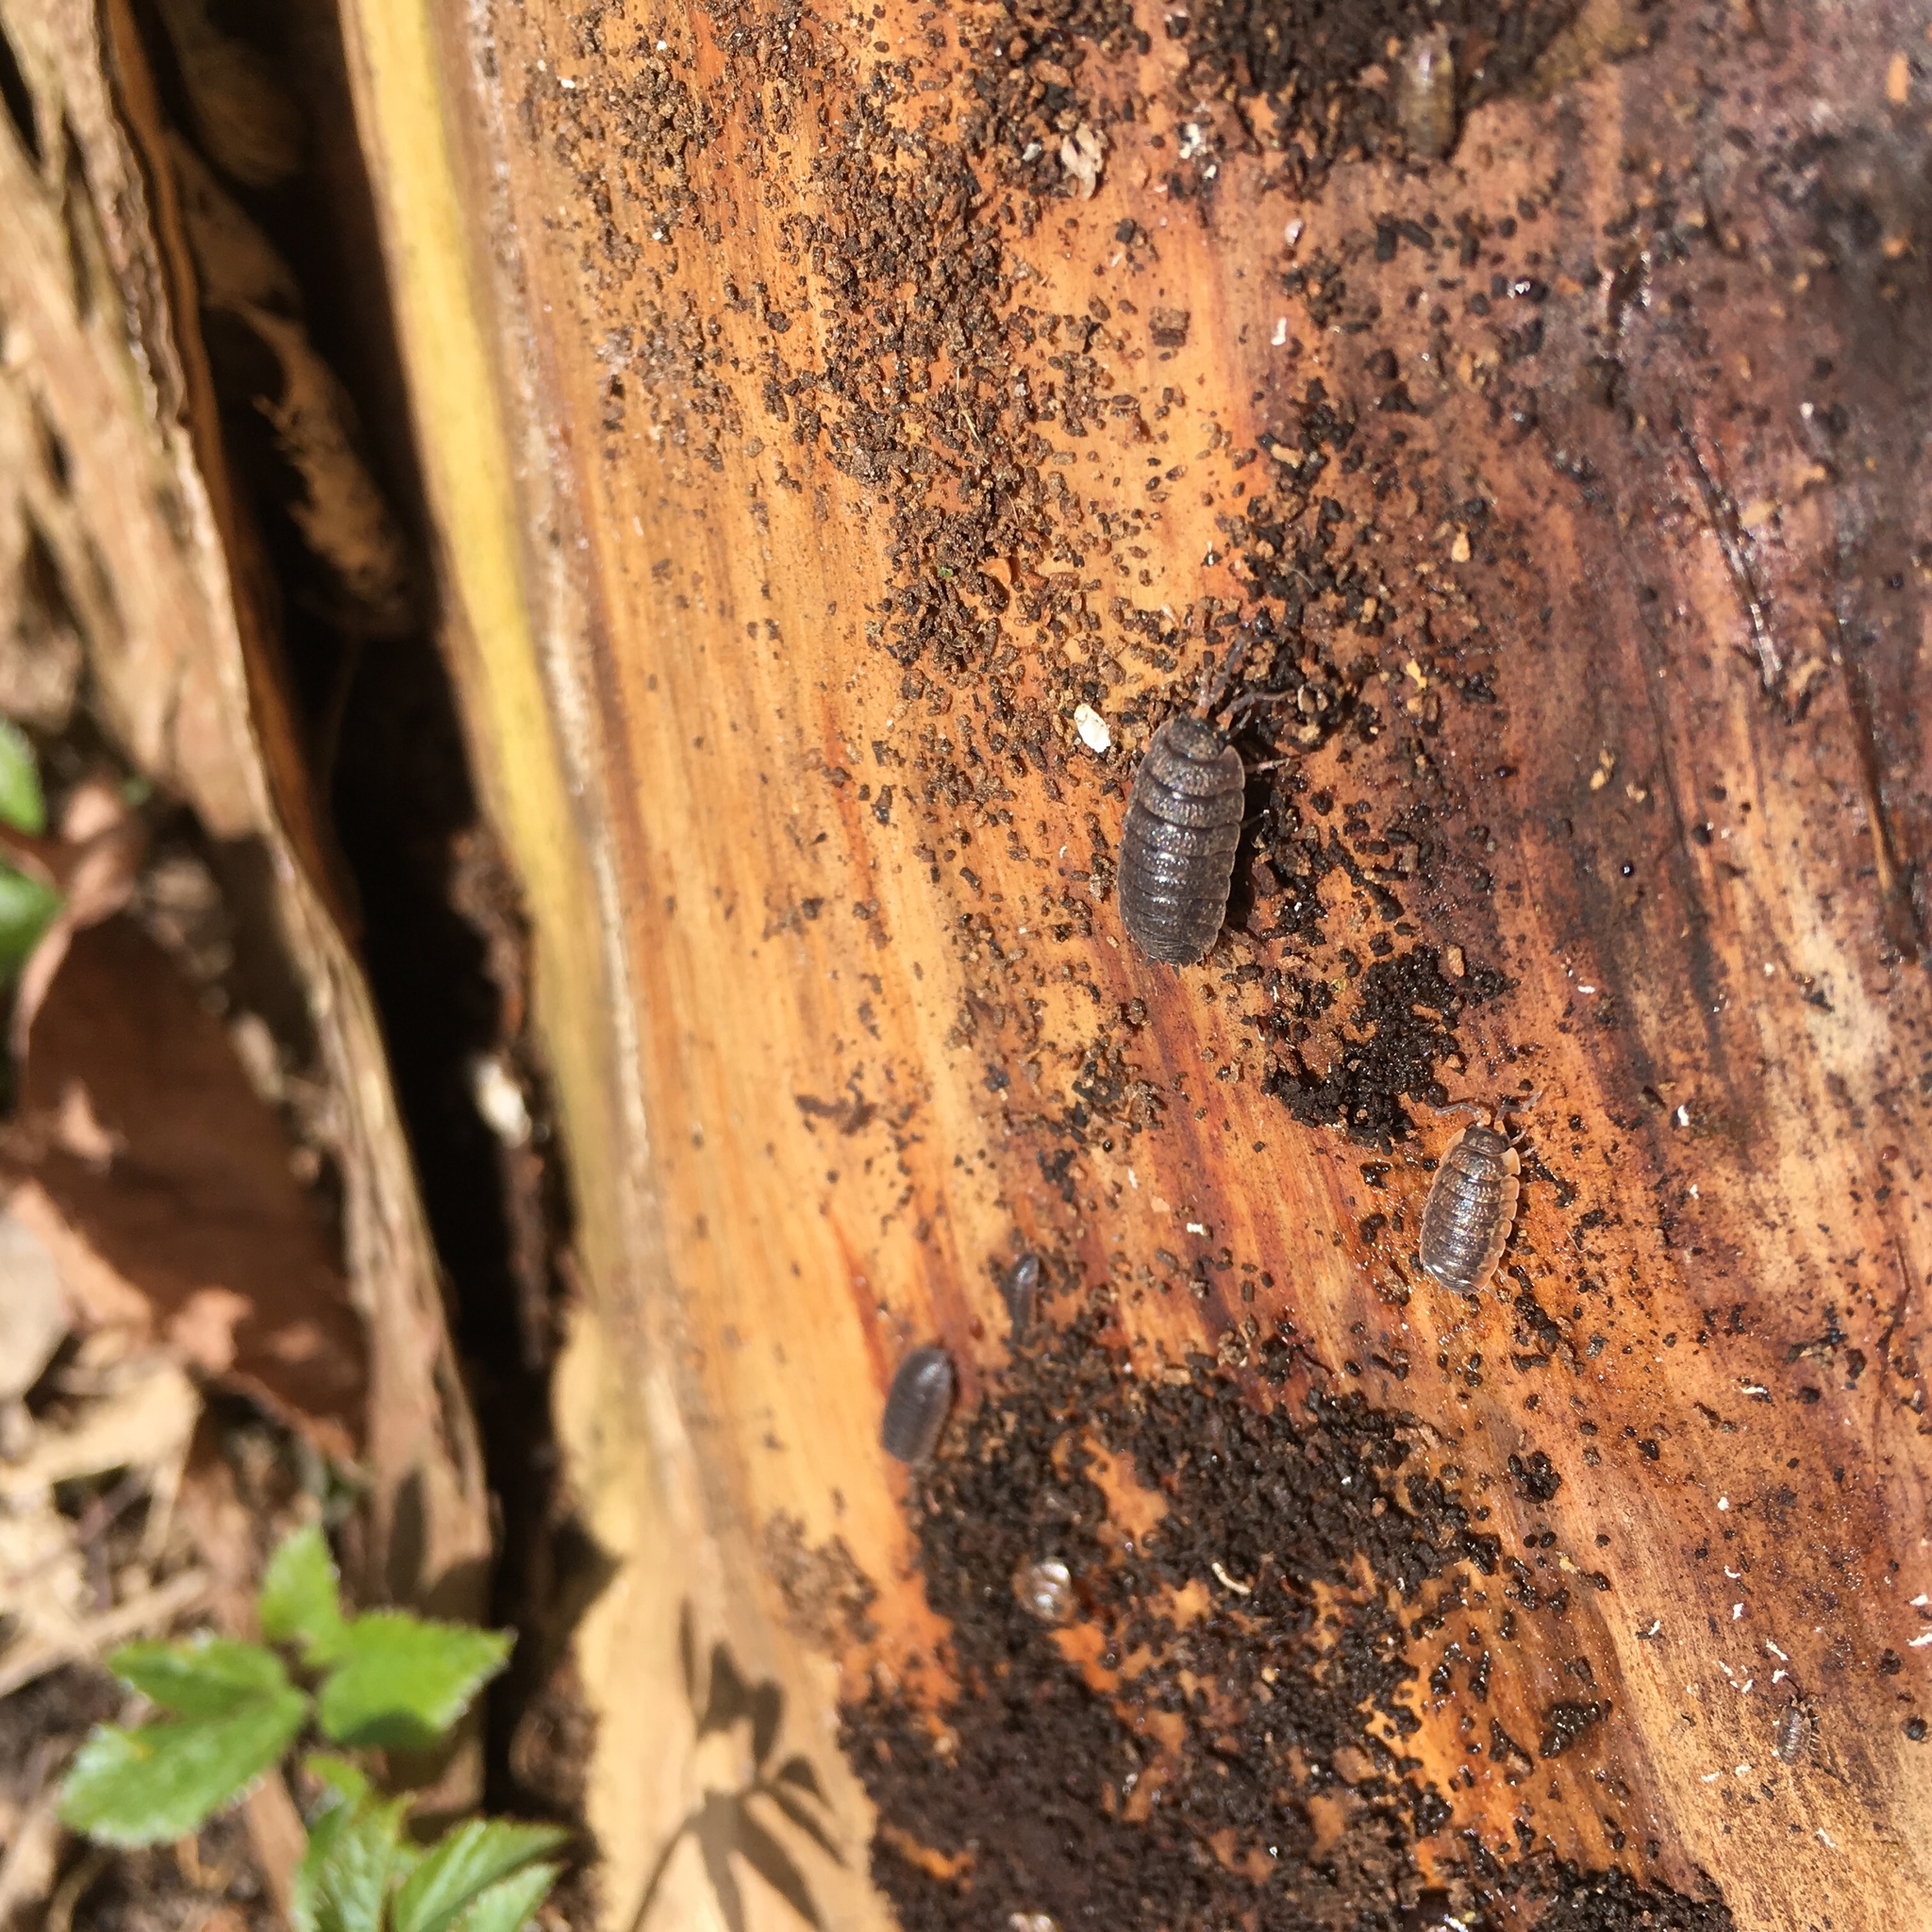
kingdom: Animalia
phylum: Arthropoda
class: Malacostraca
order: Isopoda
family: Porcellionidae
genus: Porcellio
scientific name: Porcellio scaber
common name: Common rough woodlouse
